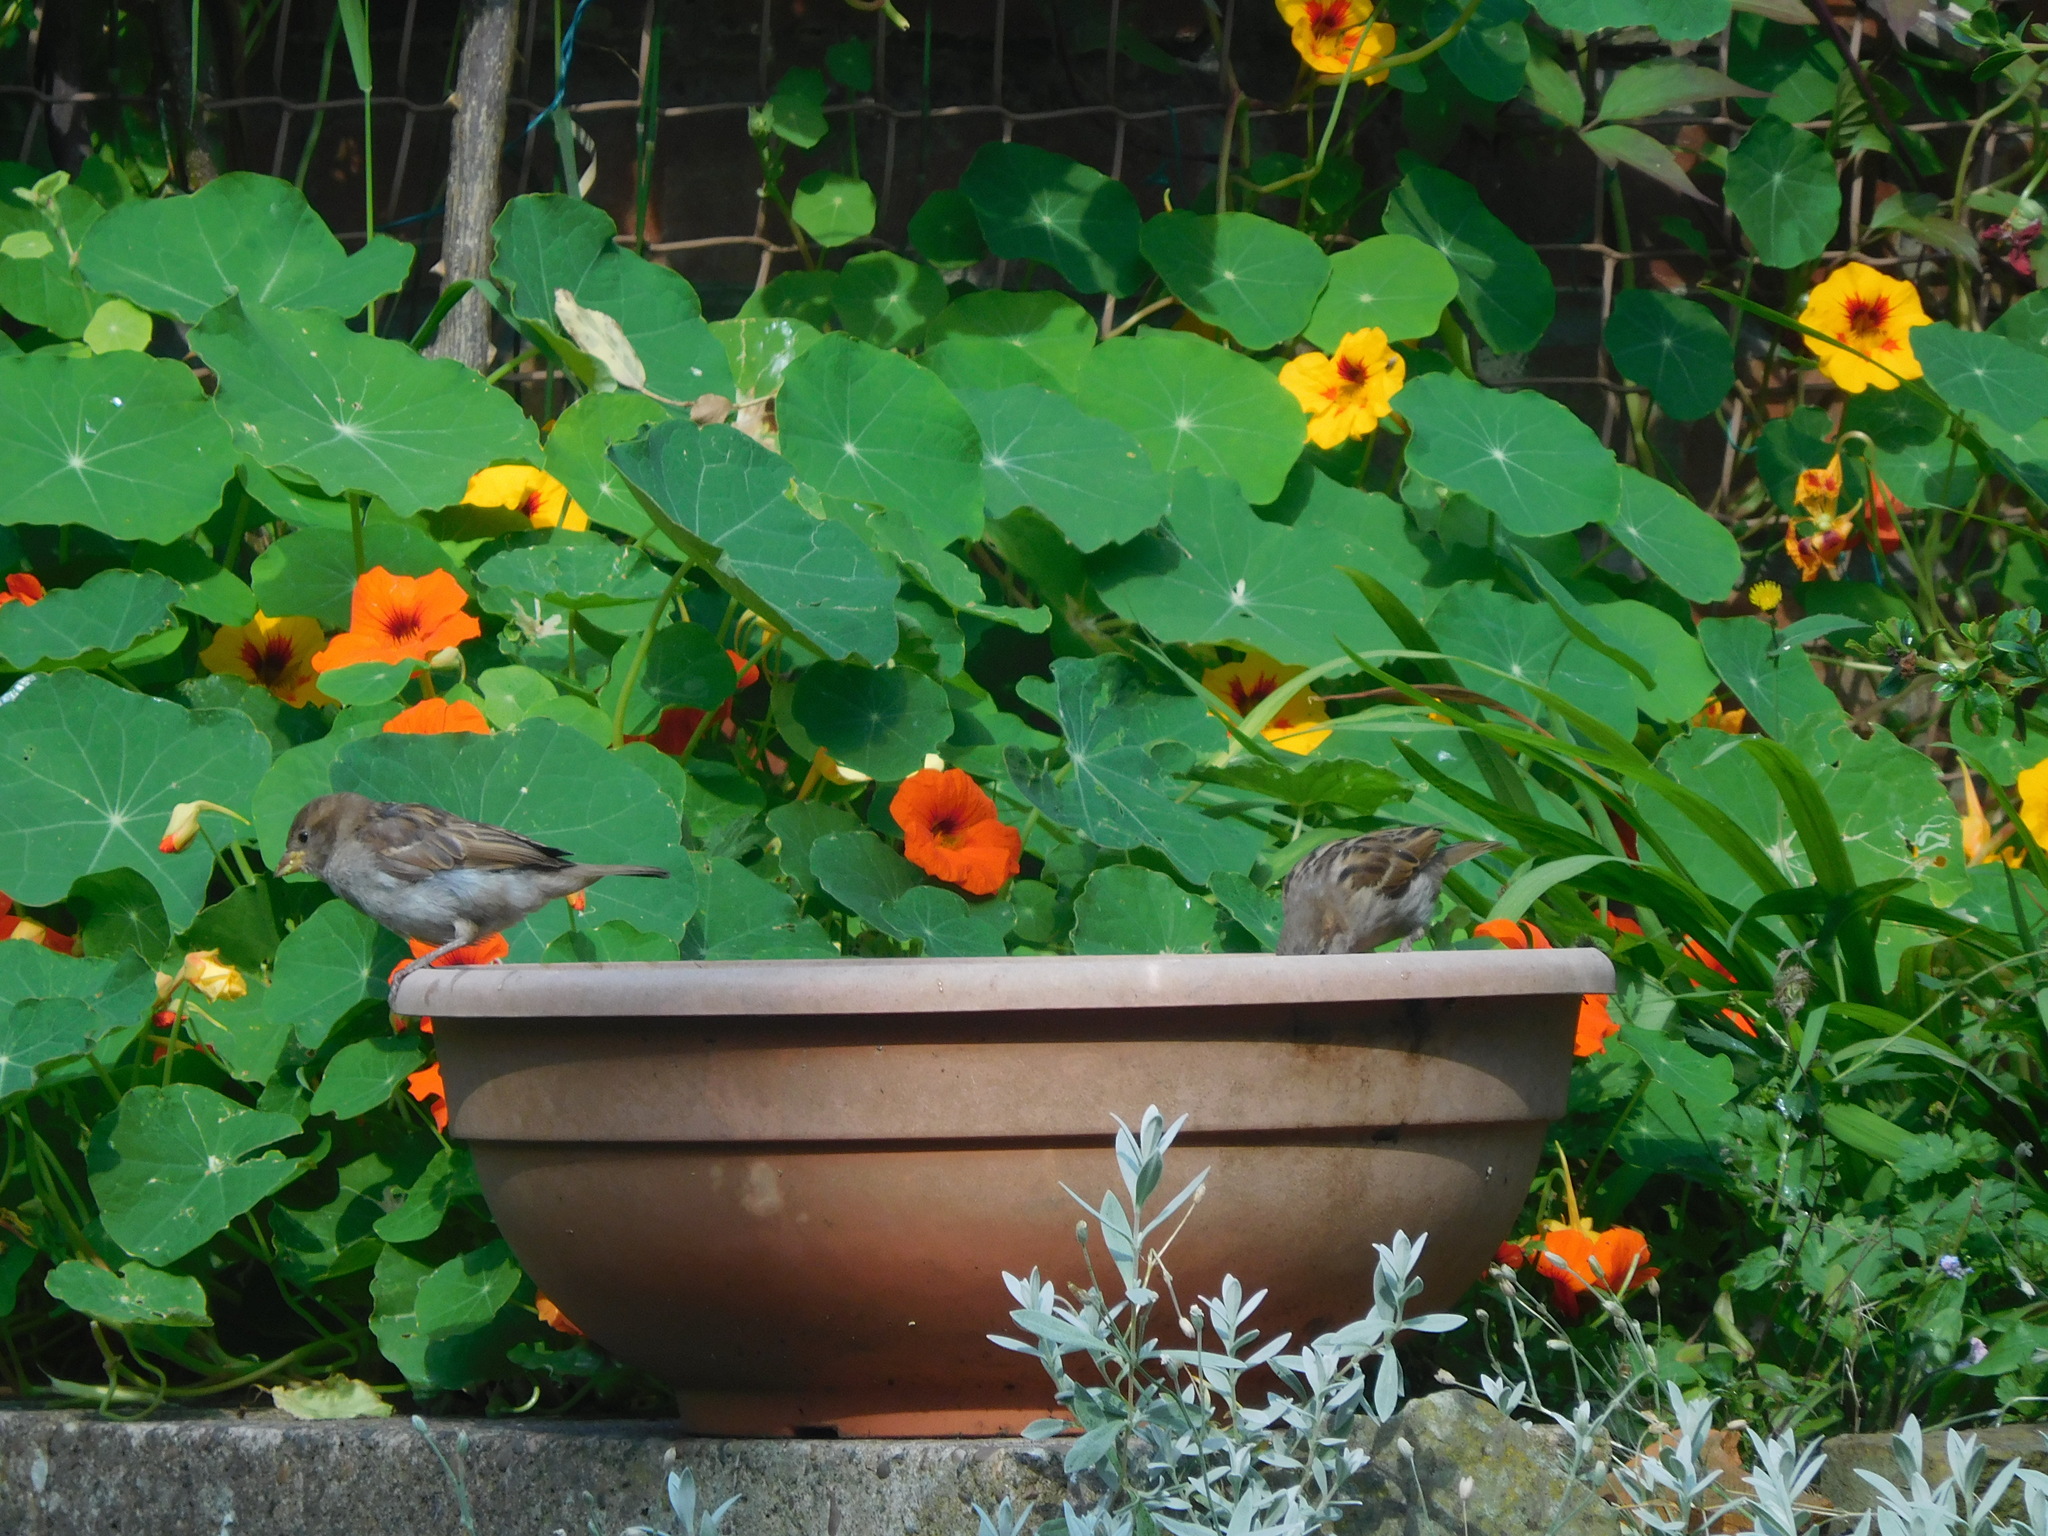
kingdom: Animalia
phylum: Chordata
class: Aves
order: Passeriformes
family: Passeridae
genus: Passer
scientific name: Passer domesticus
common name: House sparrow
